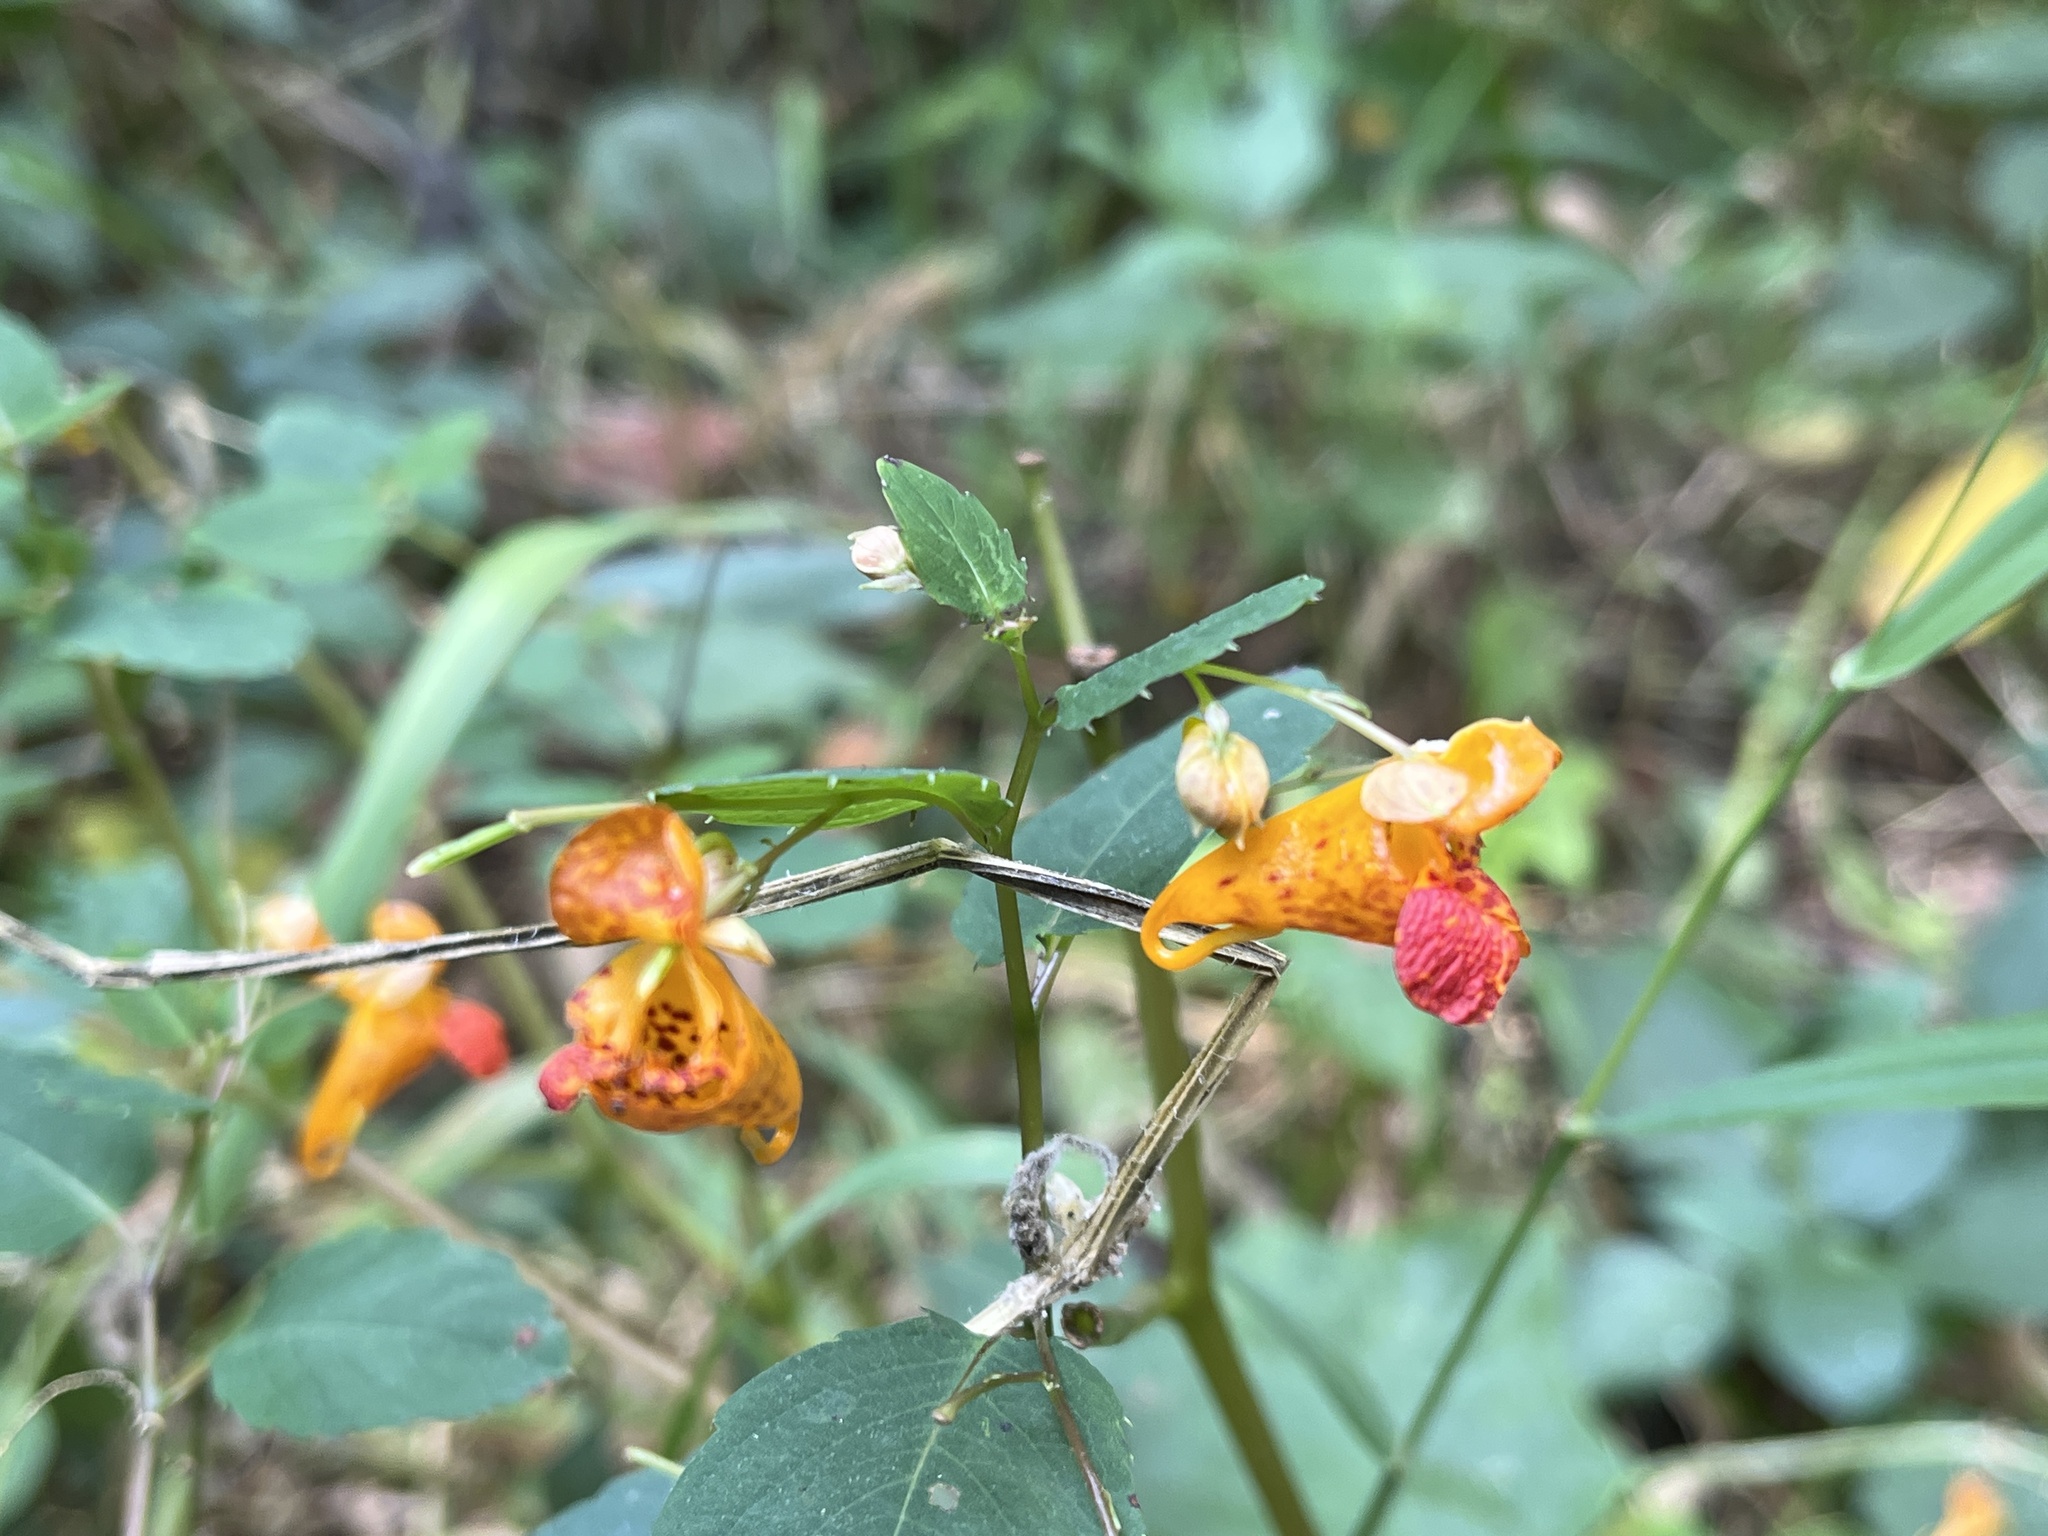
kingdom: Plantae
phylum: Tracheophyta
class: Magnoliopsida
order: Ericales
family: Balsaminaceae
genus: Impatiens
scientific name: Impatiens capensis
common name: Orange balsam
